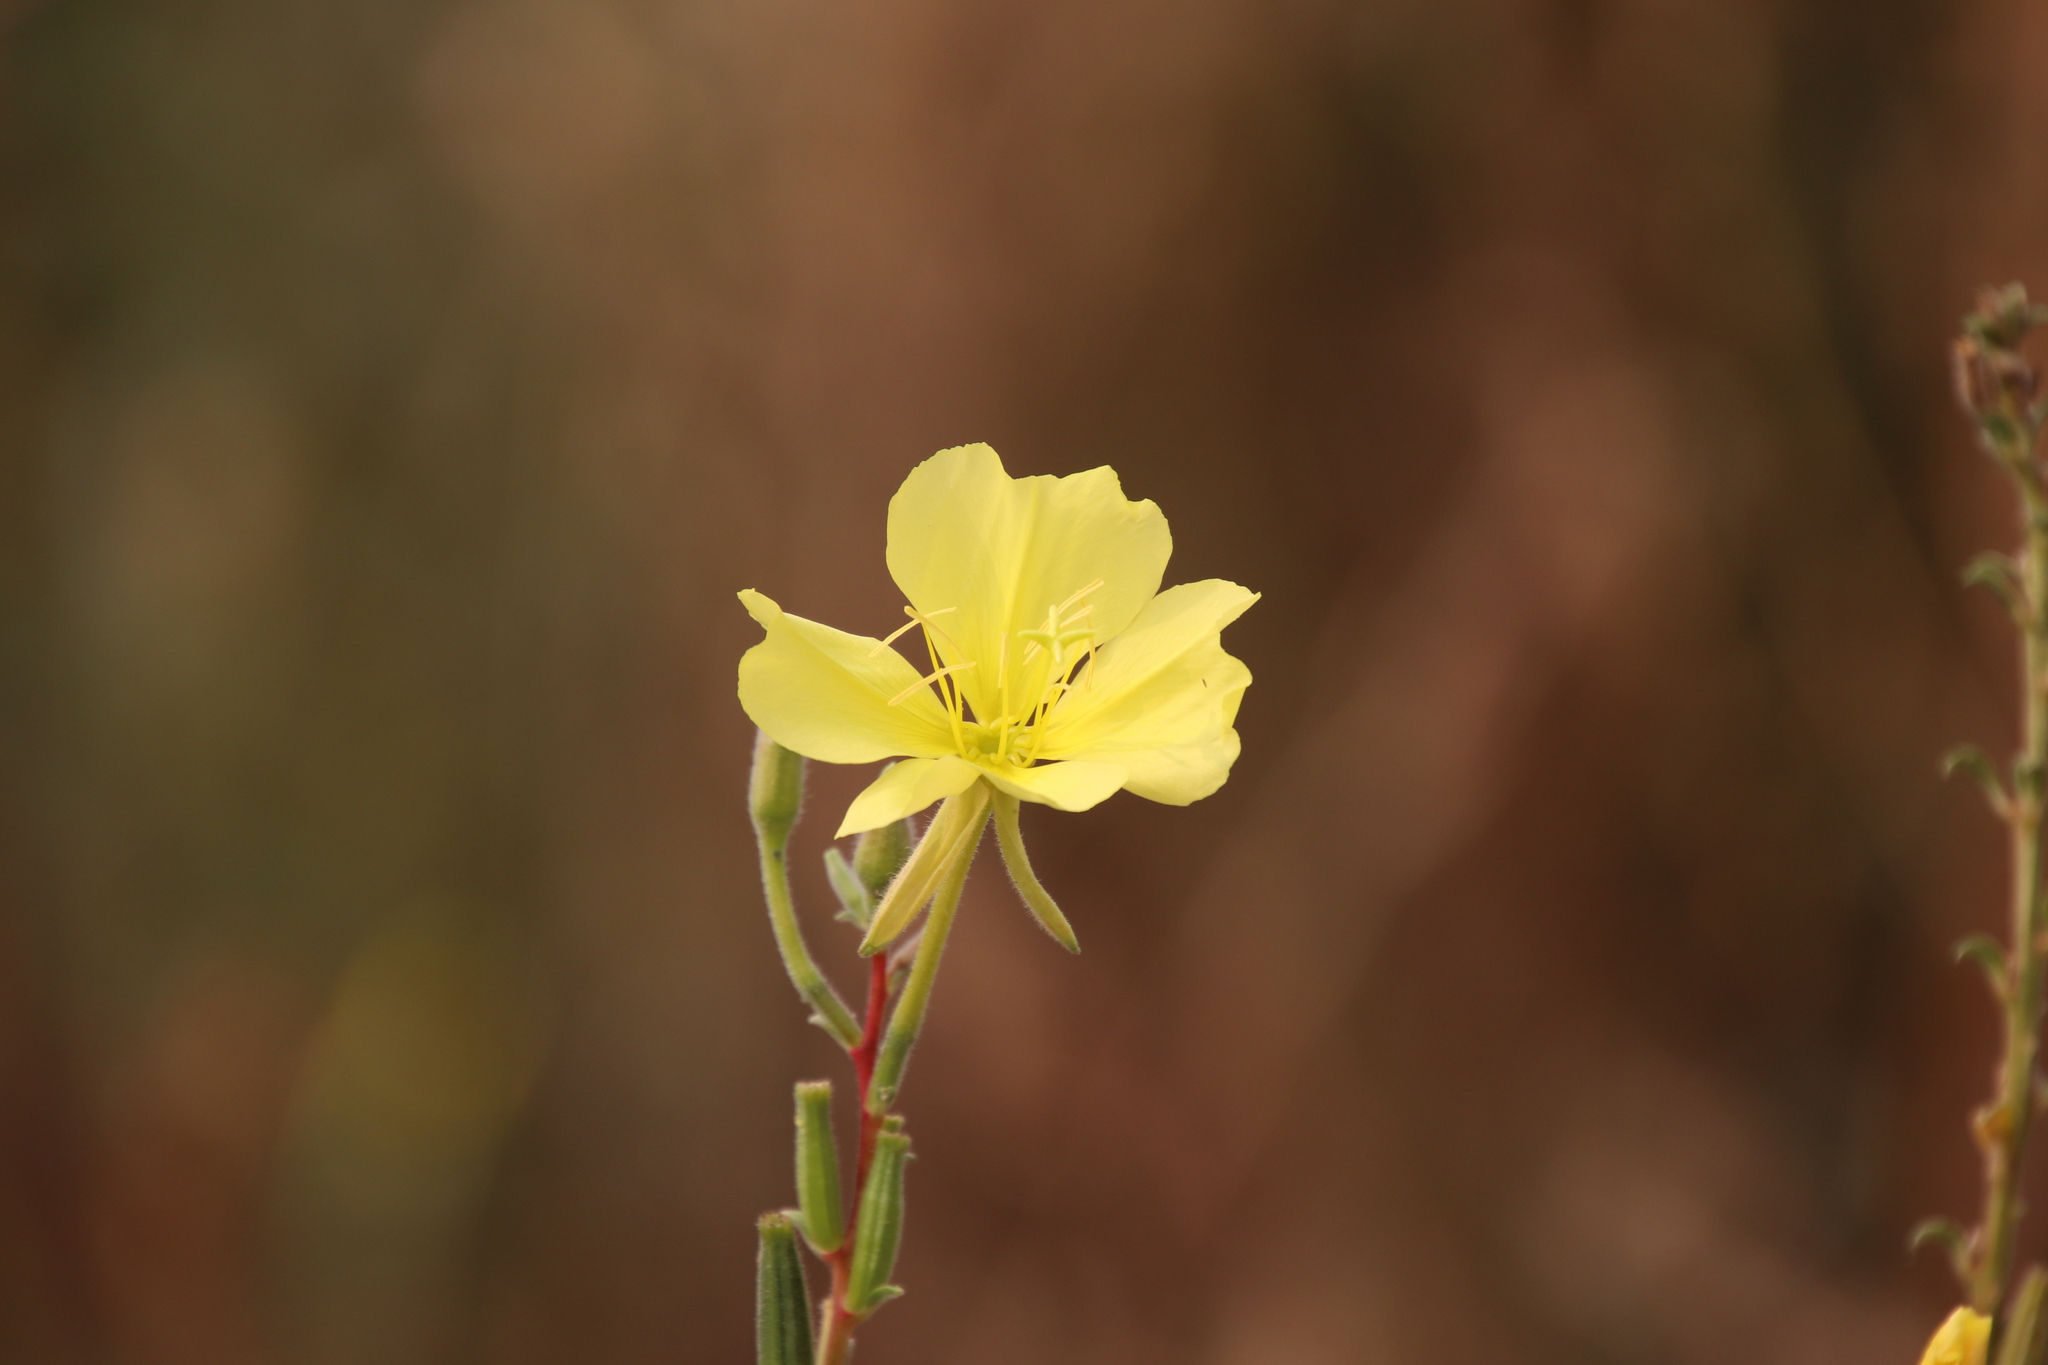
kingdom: Plantae
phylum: Tracheophyta
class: Magnoliopsida
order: Myrtales
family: Onagraceae
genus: Oenothera
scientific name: Oenothera elata
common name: Hooker's evening-primrose
